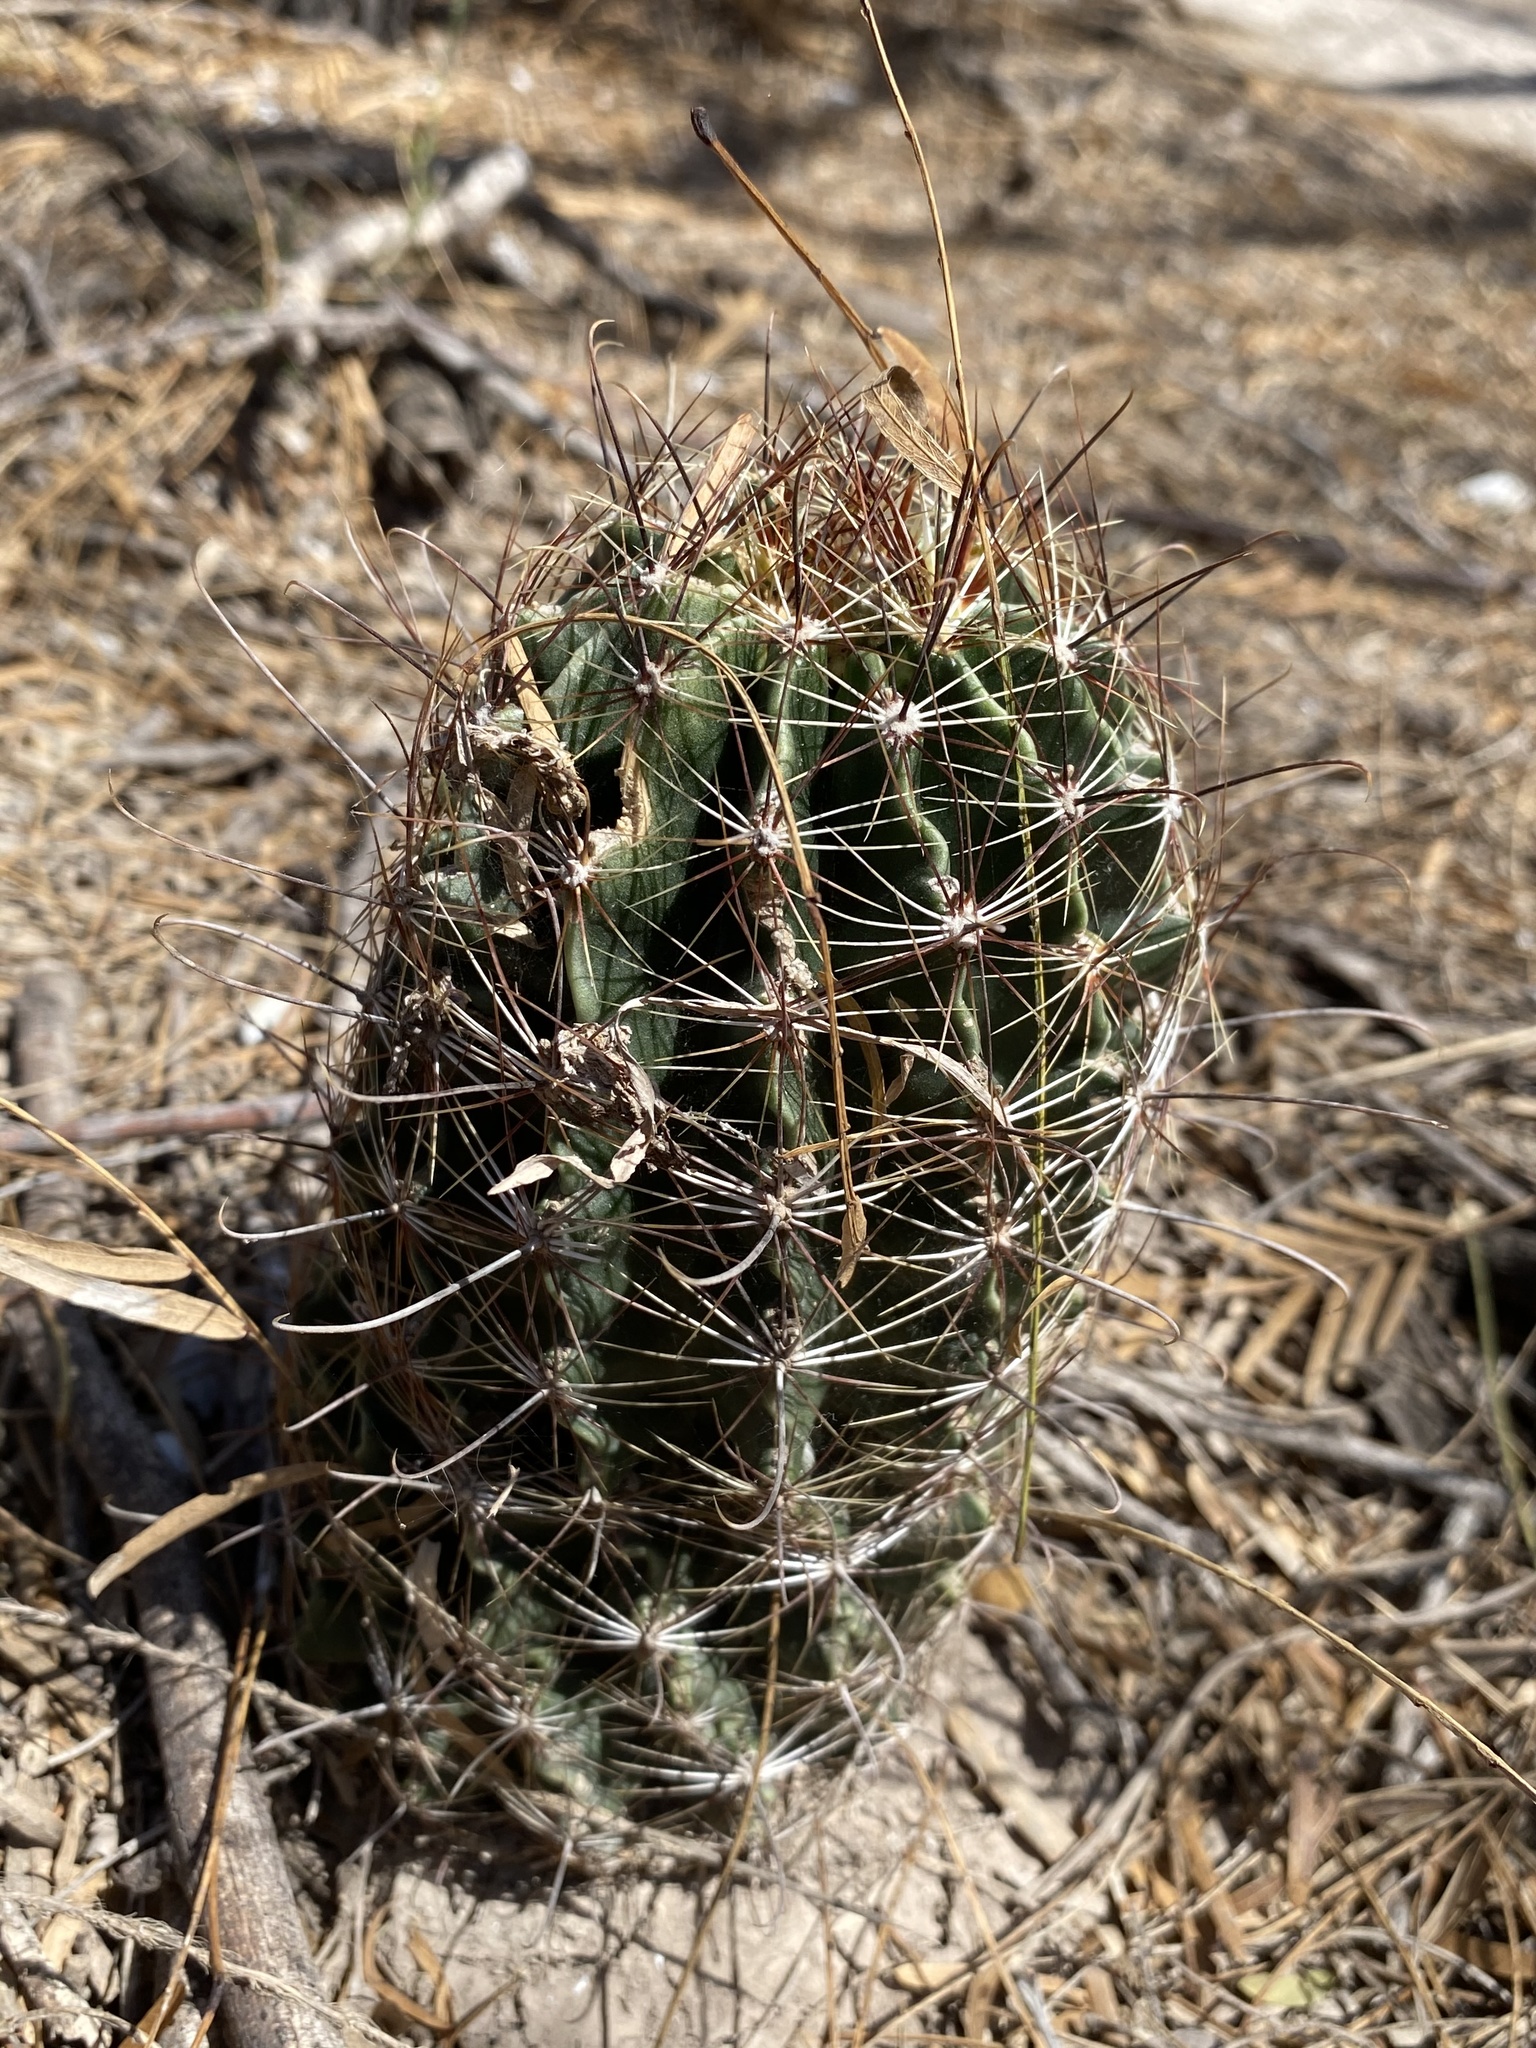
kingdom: Plantae
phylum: Tracheophyta
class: Magnoliopsida
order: Caryophyllales
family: Cactaceae
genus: Thelocactus
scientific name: Thelocactus setispinus
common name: Miniature barrel cactus
